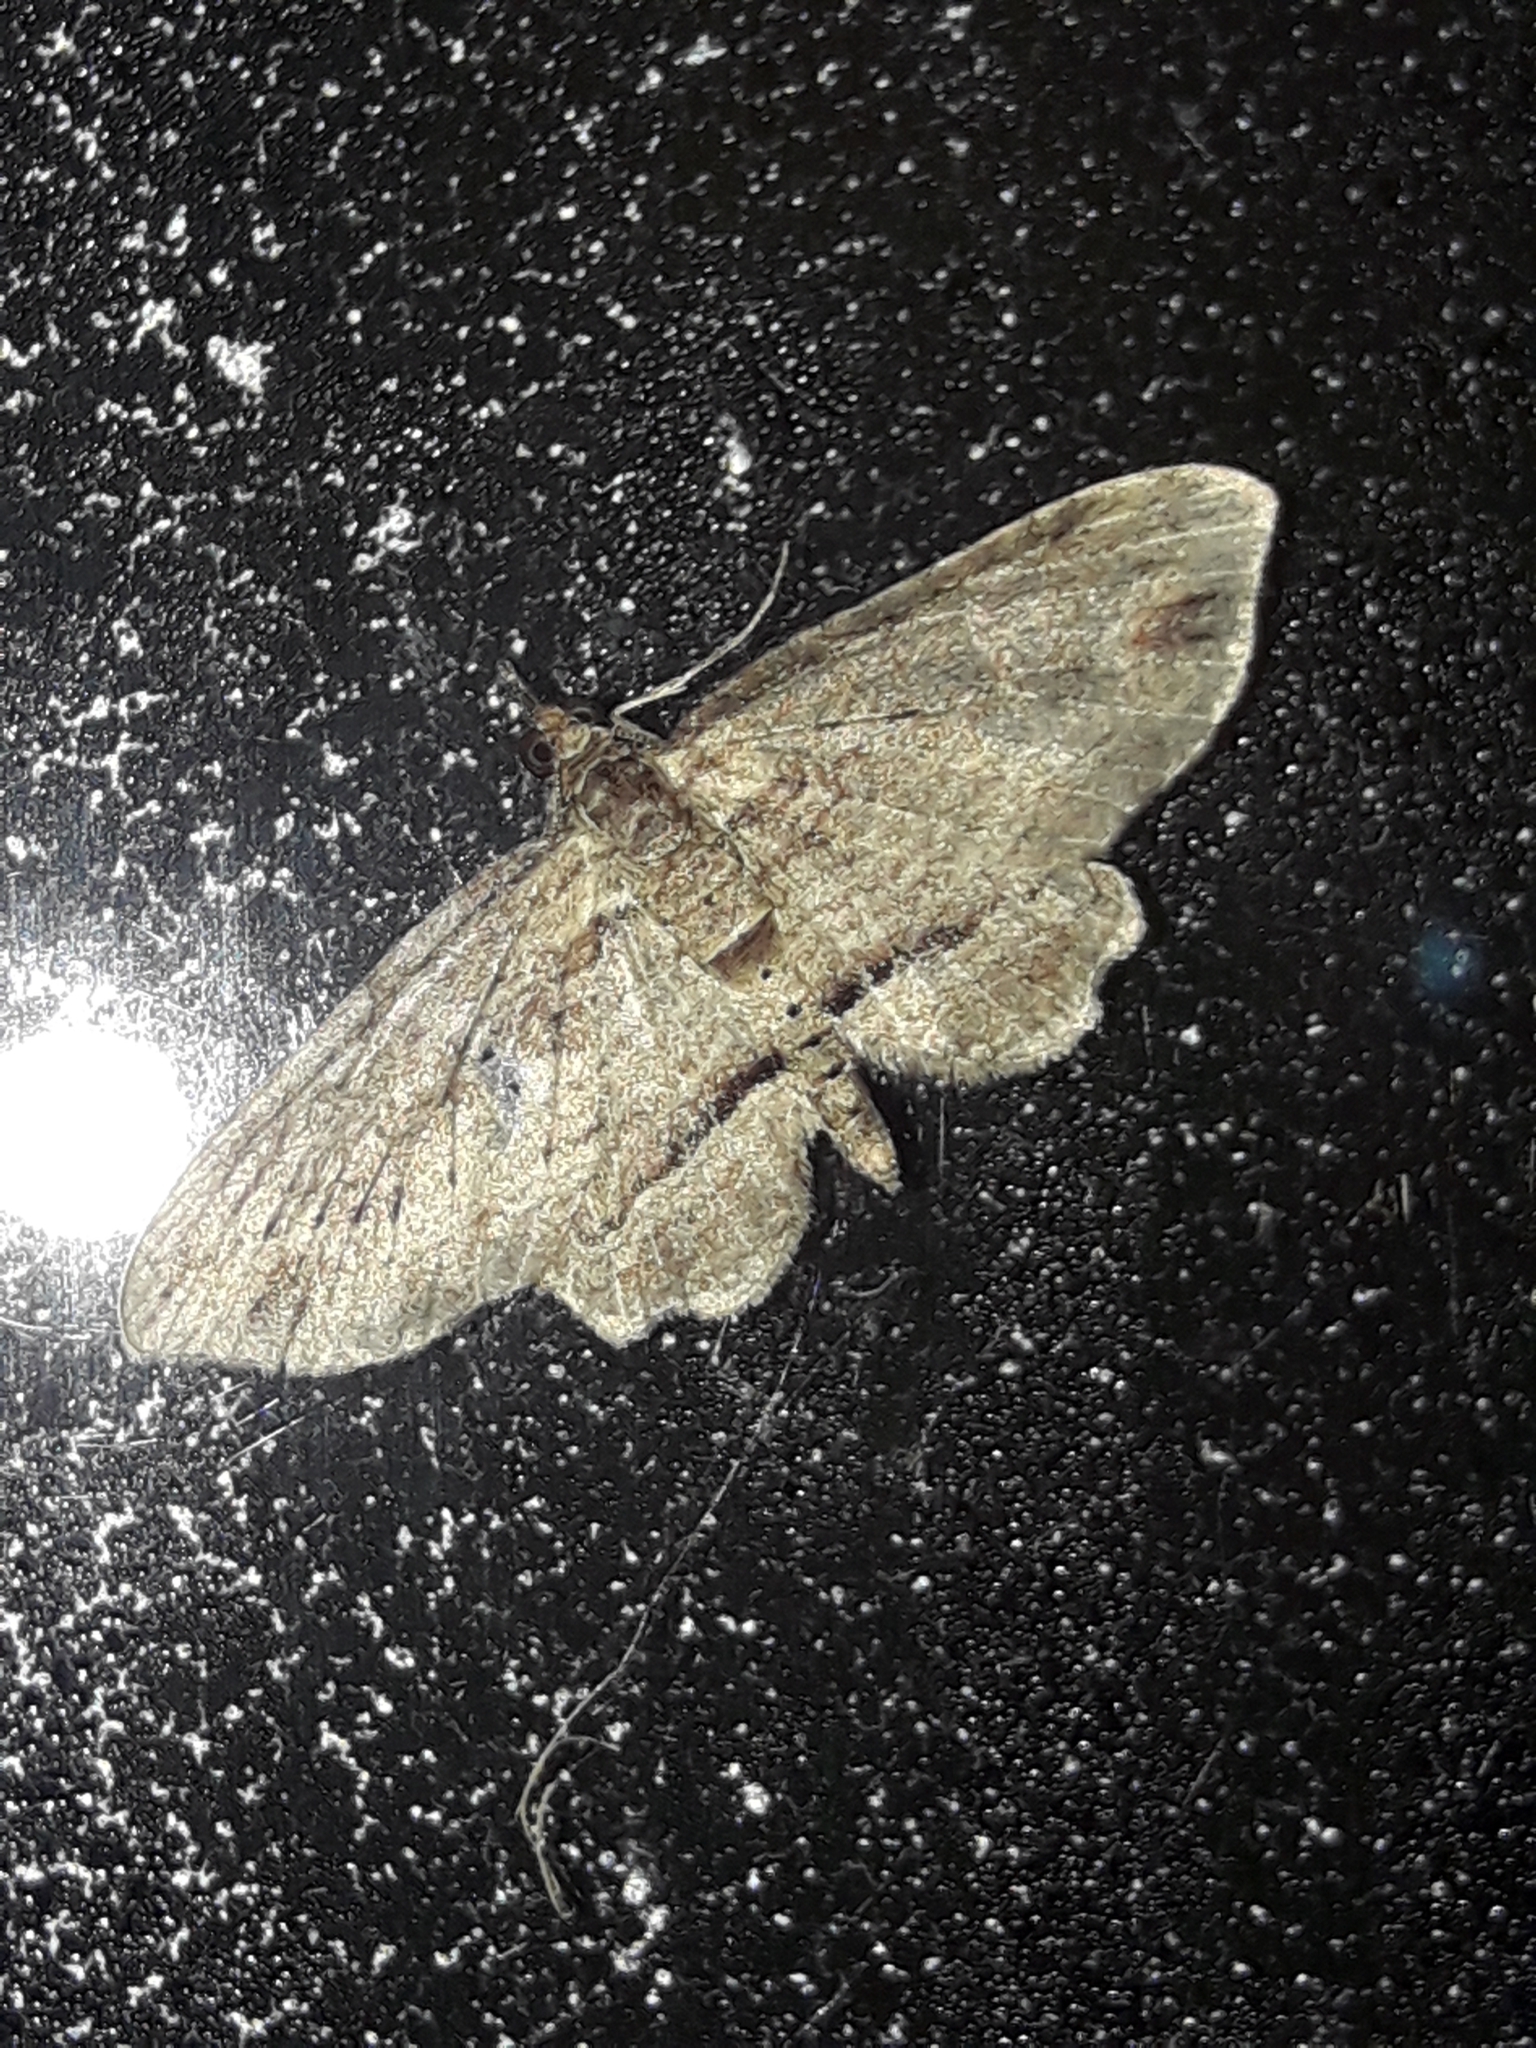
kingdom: Animalia
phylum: Arthropoda
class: Insecta
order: Lepidoptera
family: Geometridae
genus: Chloroclystis
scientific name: Chloroclystis filata
